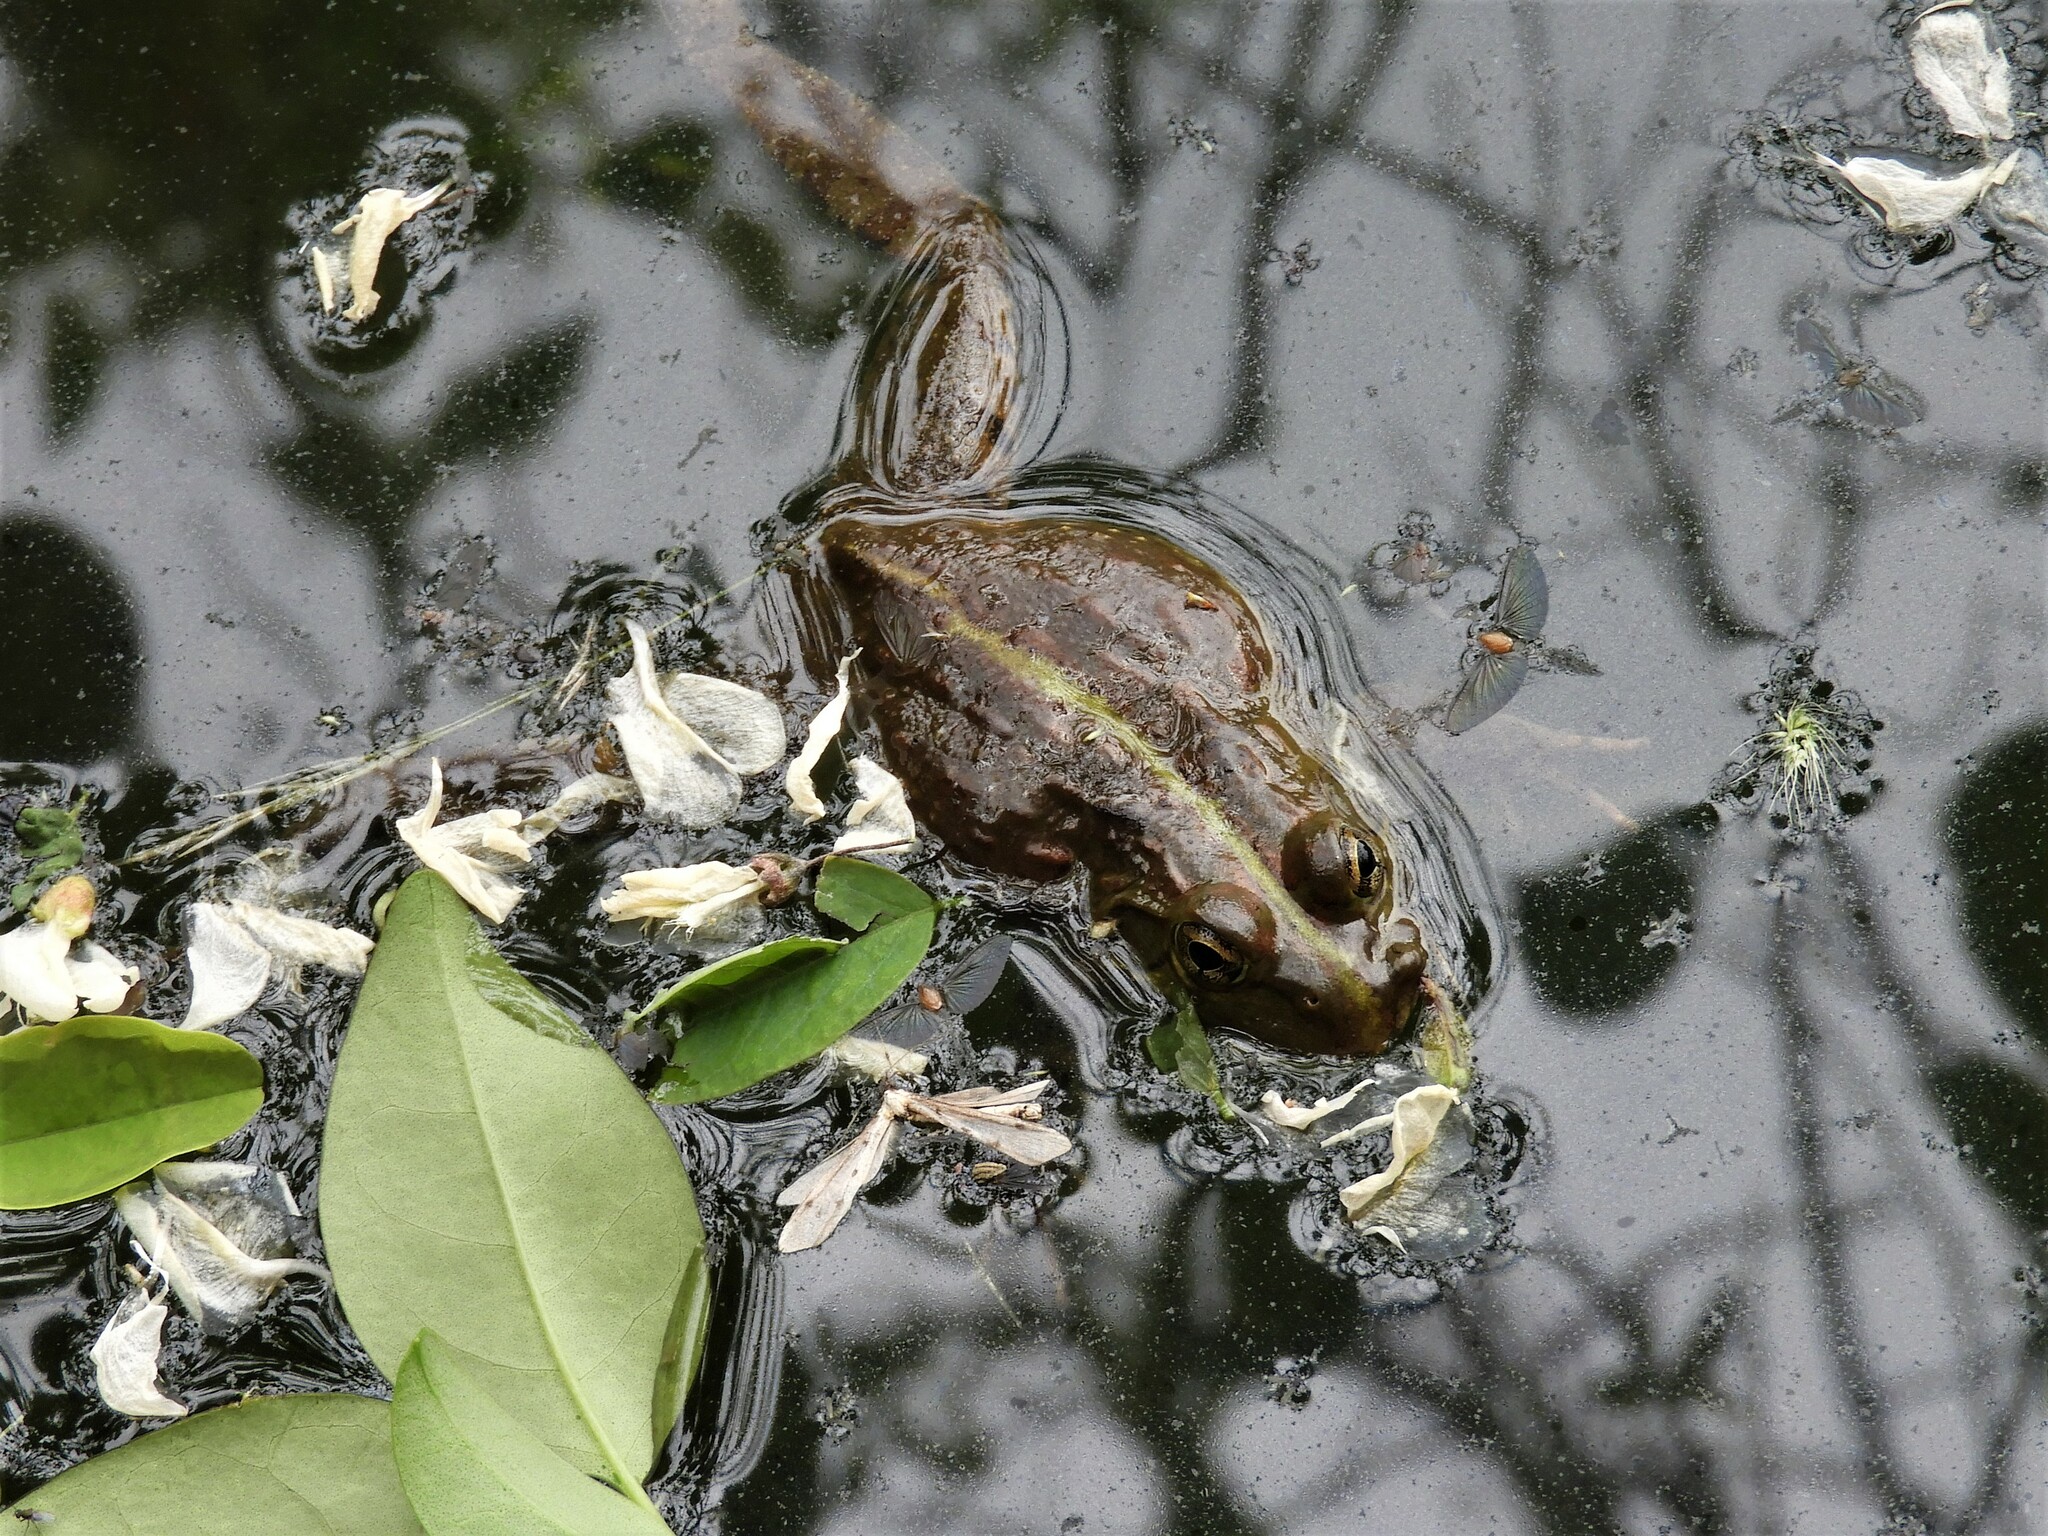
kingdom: Animalia
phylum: Chordata
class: Amphibia
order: Anura
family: Pyxicephalidae
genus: Amietia
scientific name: Amietia poyntoni
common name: Poynton's river frog
